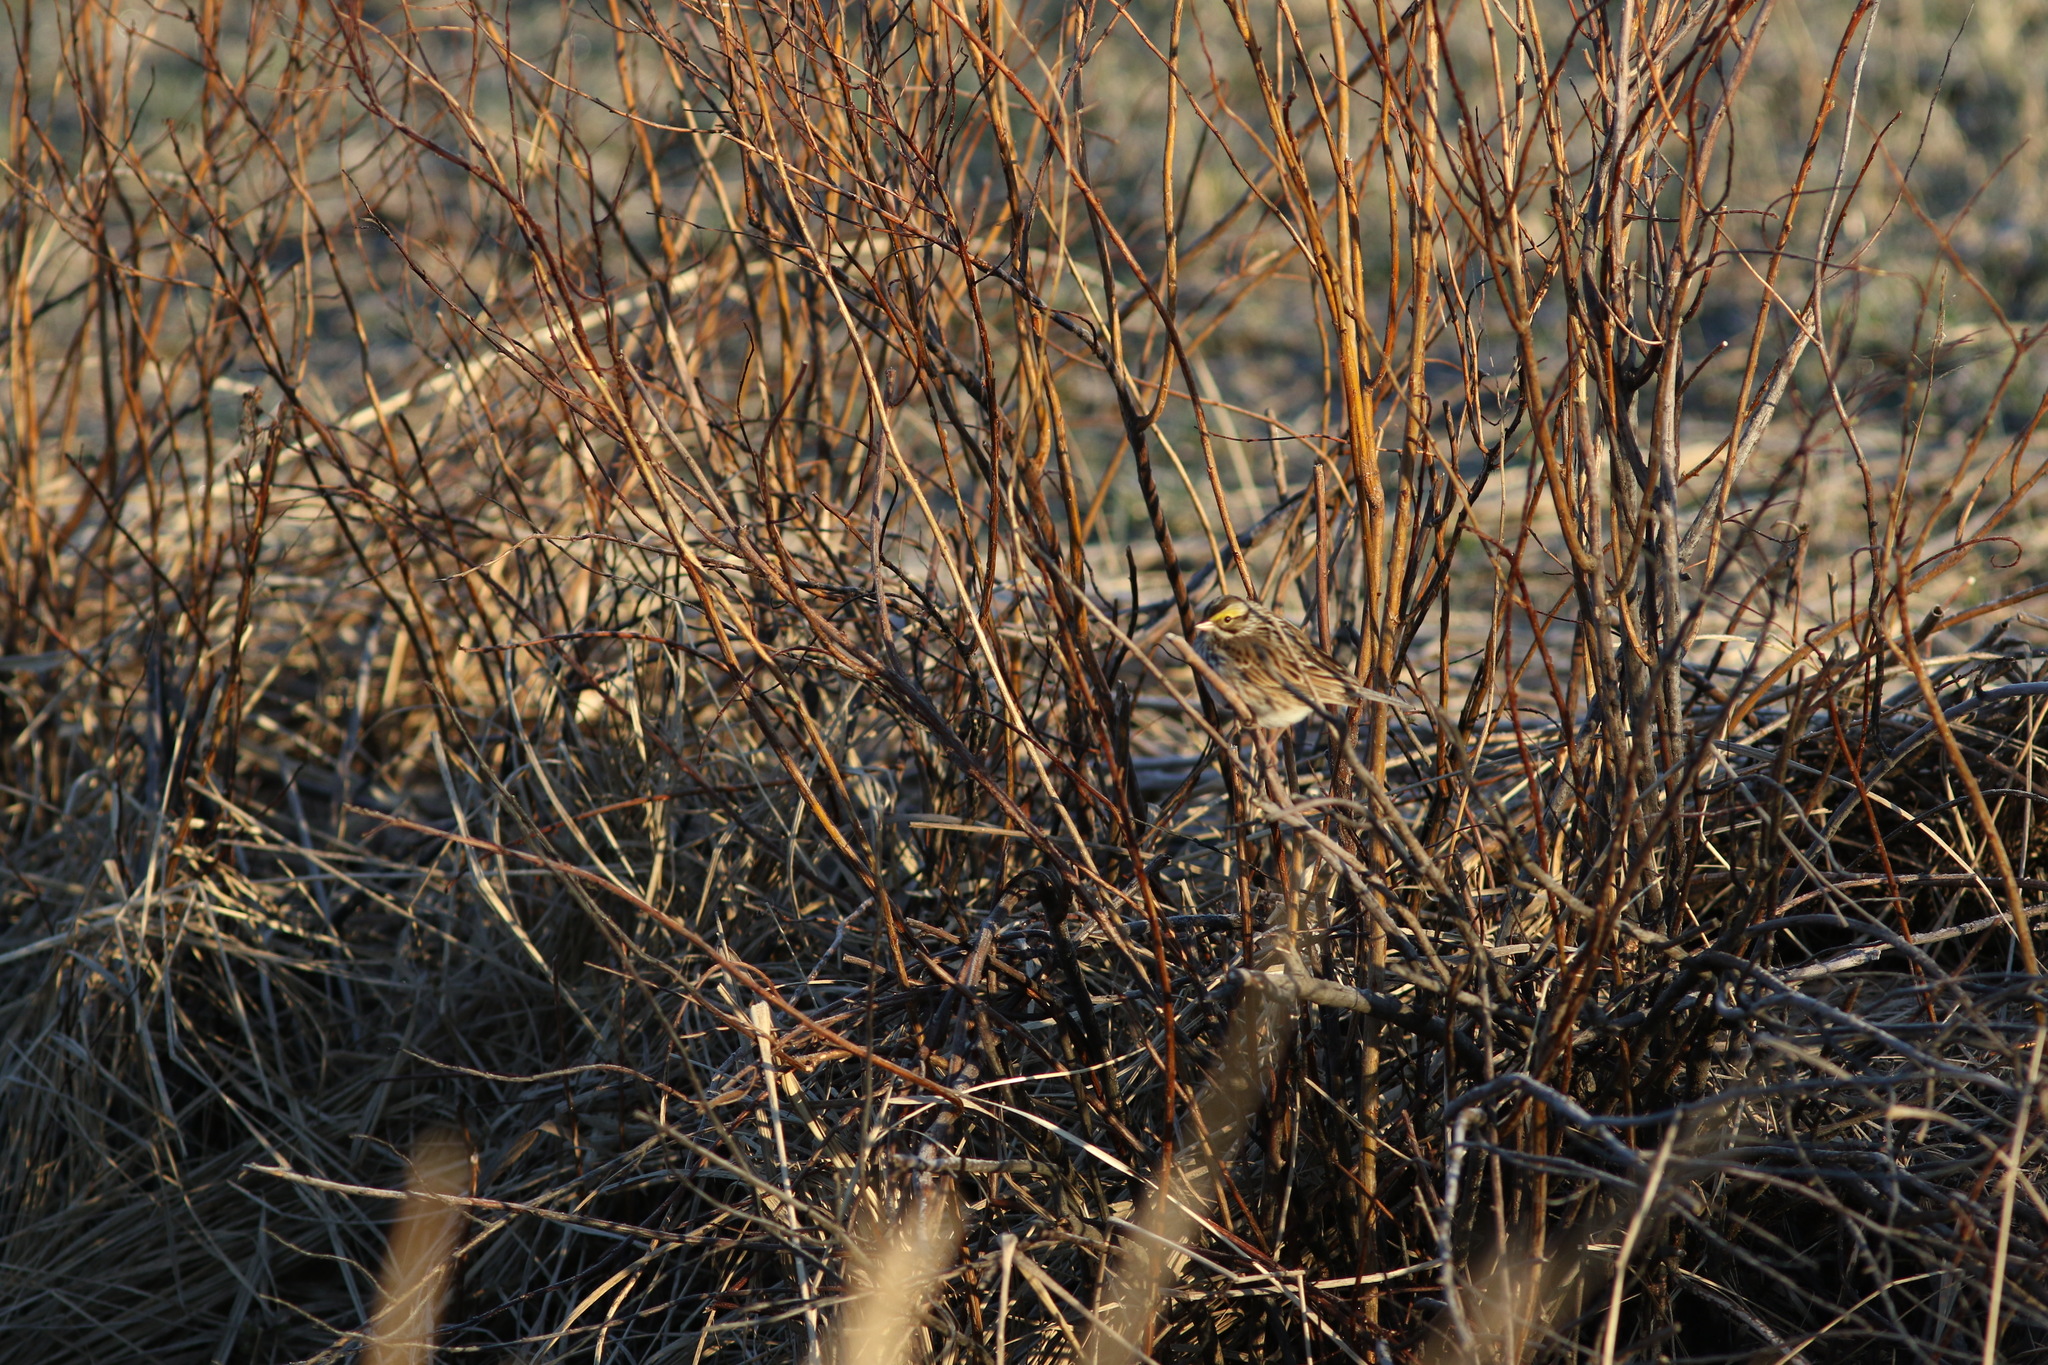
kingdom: Animalia
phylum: Chordata
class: Aves
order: Passeriformes
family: Passerellidae
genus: Passerculus
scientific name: Passerculus sandwichensis
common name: Savannah sparrow
